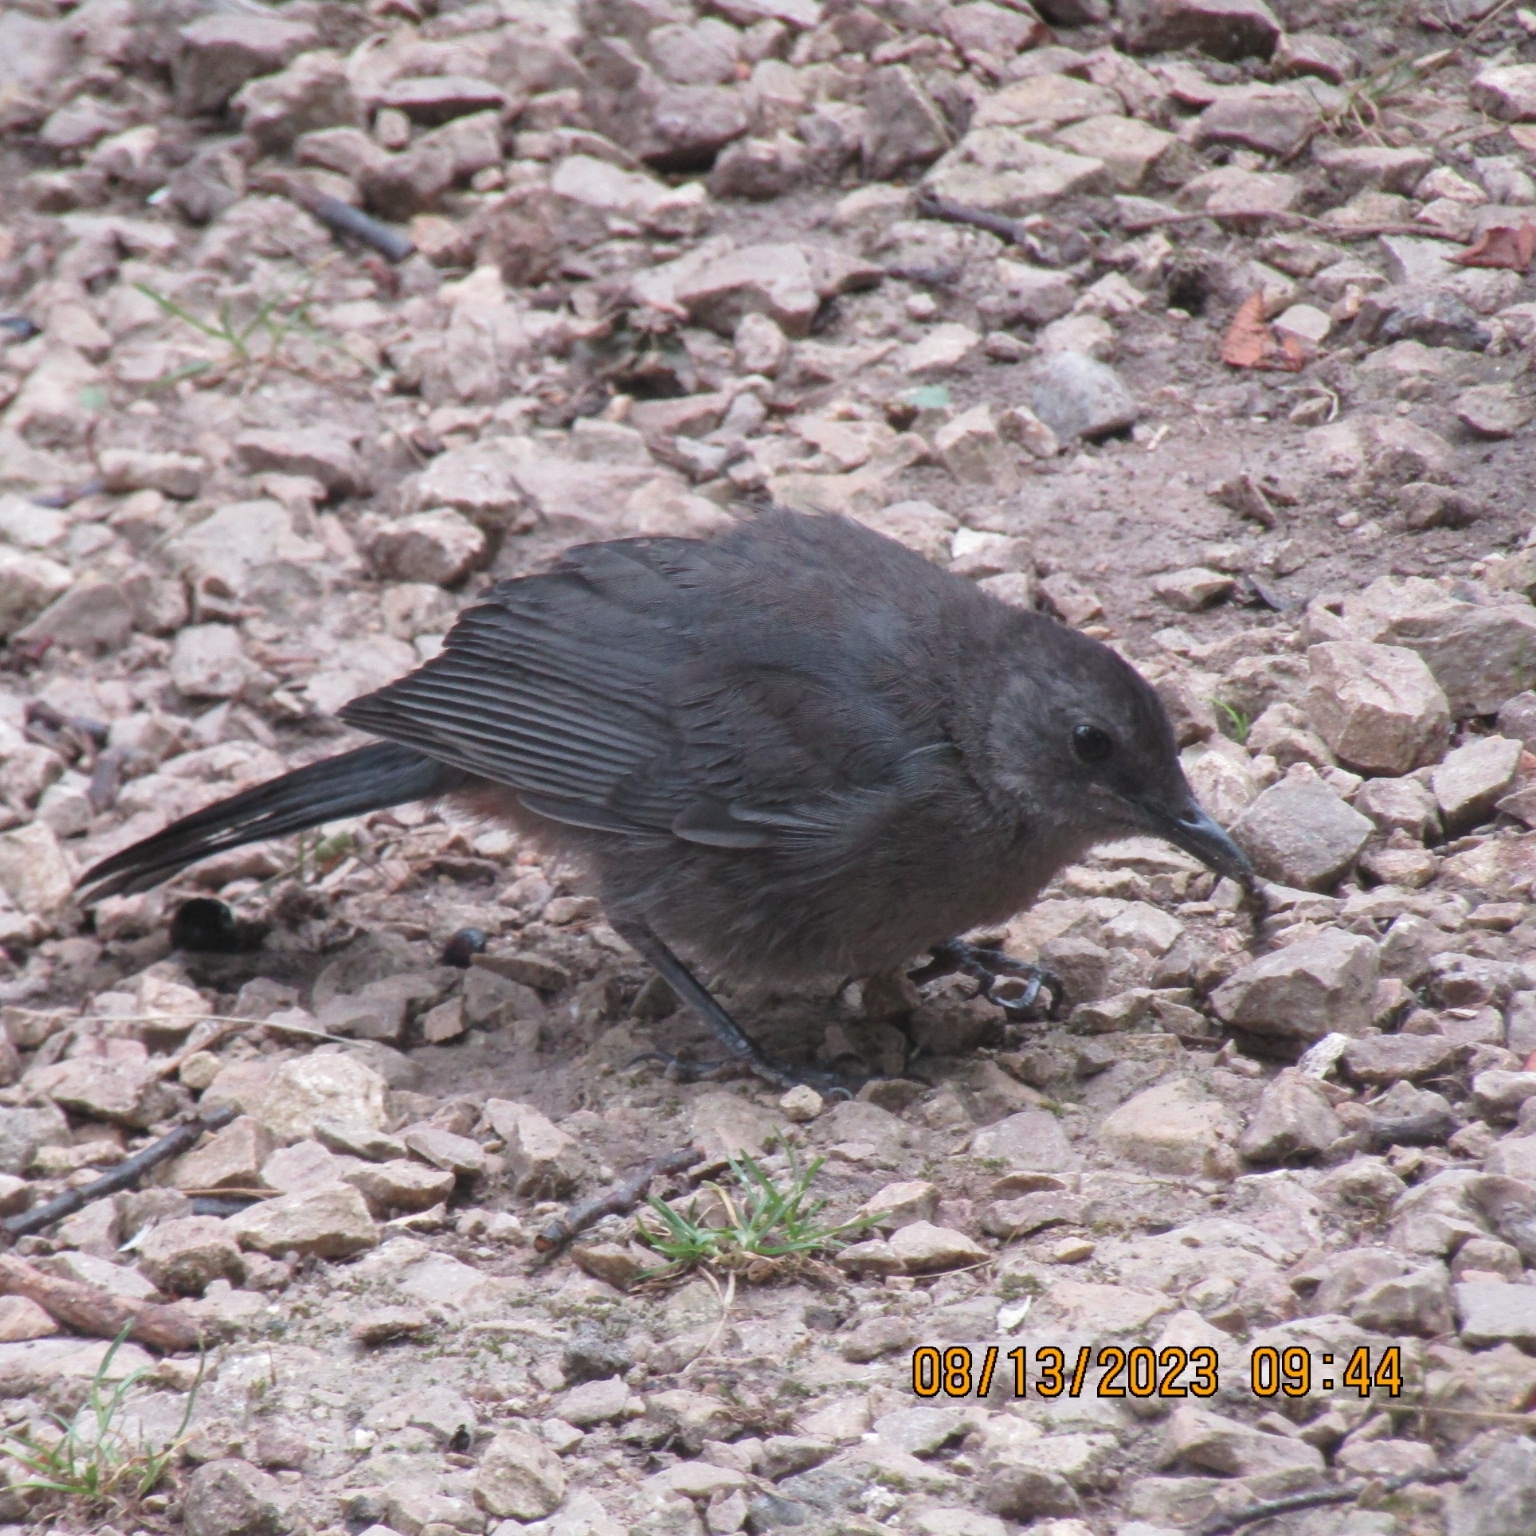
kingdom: Animalia
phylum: Chordata
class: Aves
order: Passeriformes
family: Mimidae
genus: Dumetella
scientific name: Dumetella carolinensis
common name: Gray catbird
